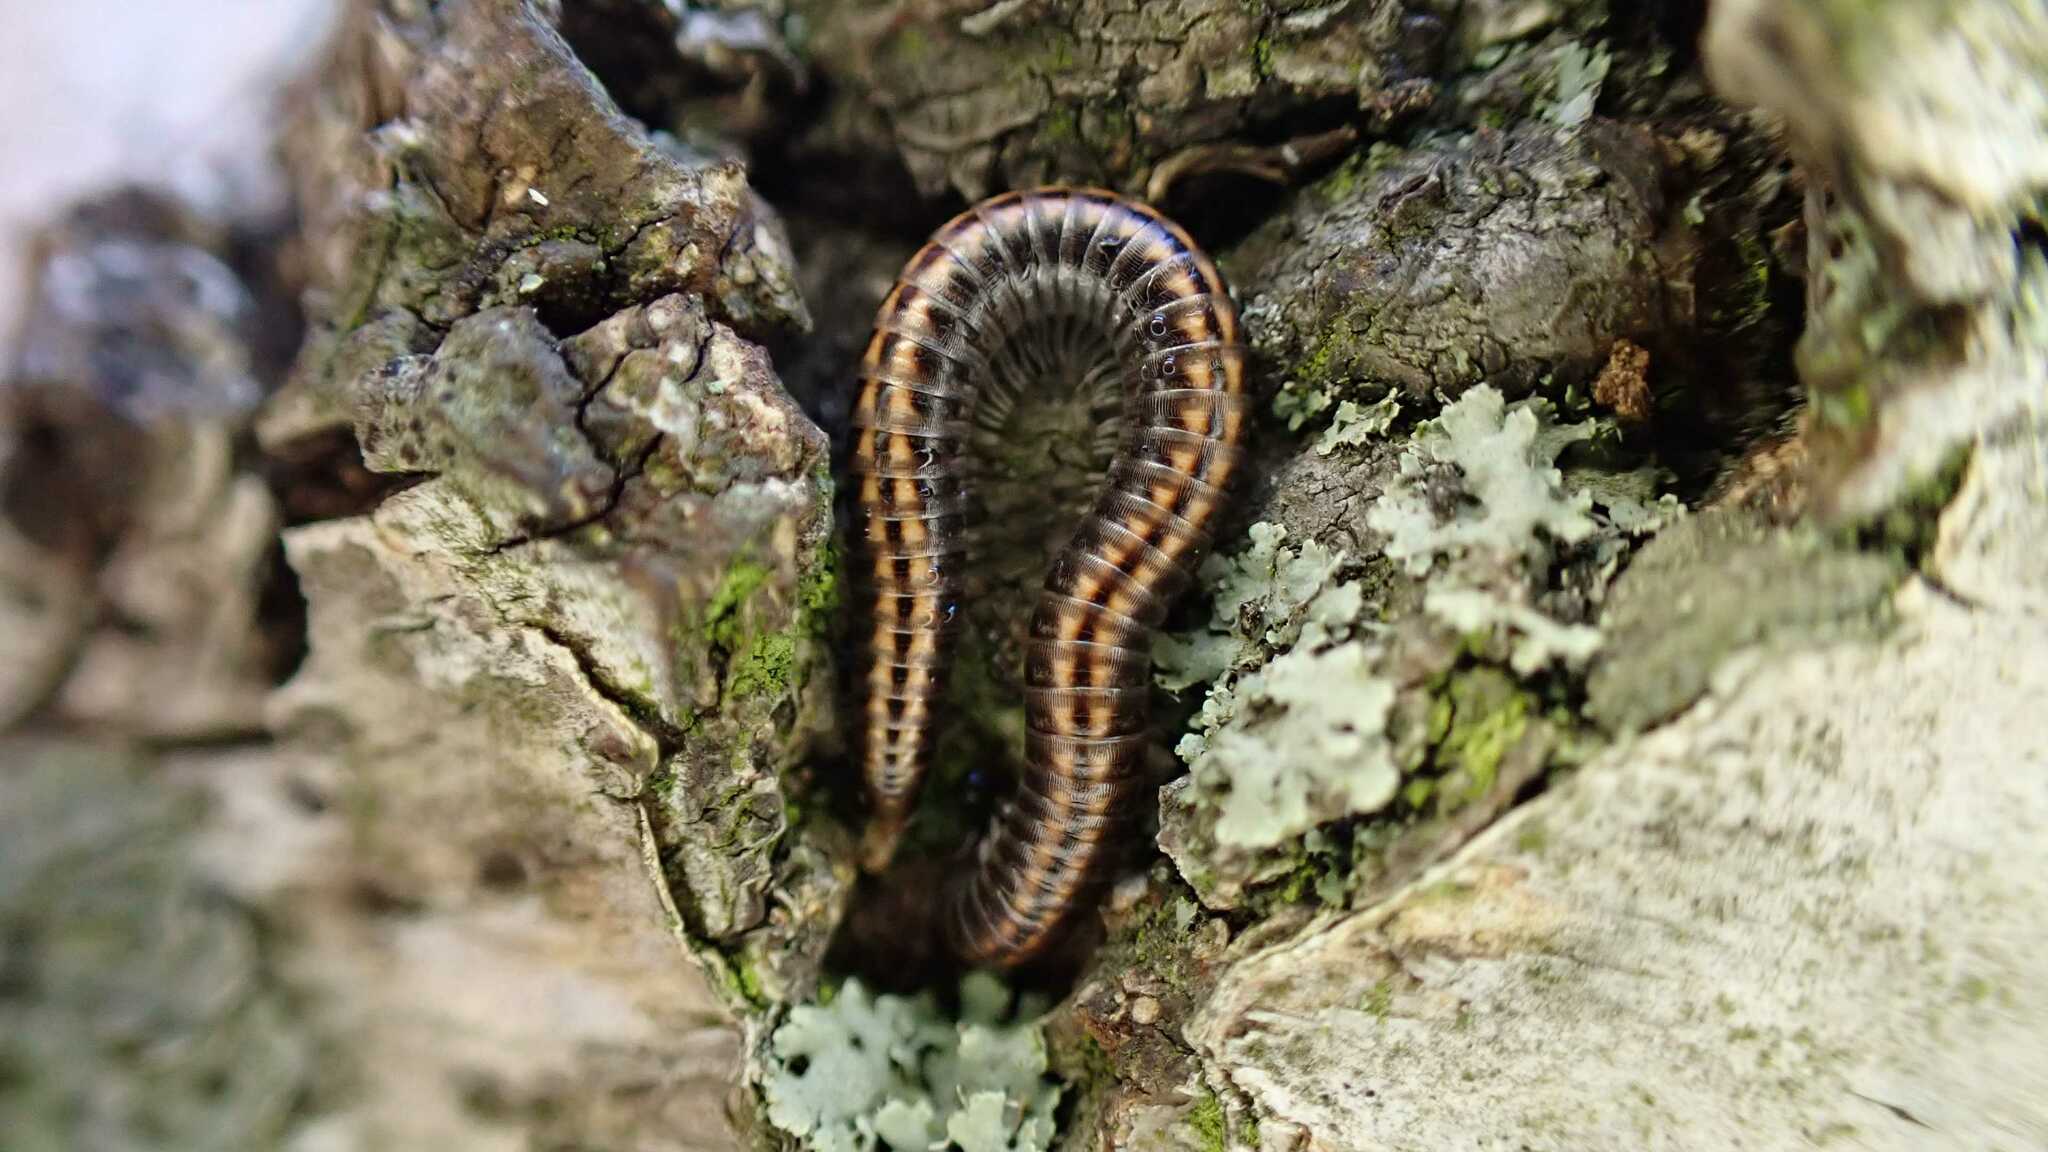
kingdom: Animalia
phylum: Arthropoda
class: Diplopoda
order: Julida
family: Julidae
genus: Ommatoiulus
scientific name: Ommatoiulus sabulosus
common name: Striped millipede
